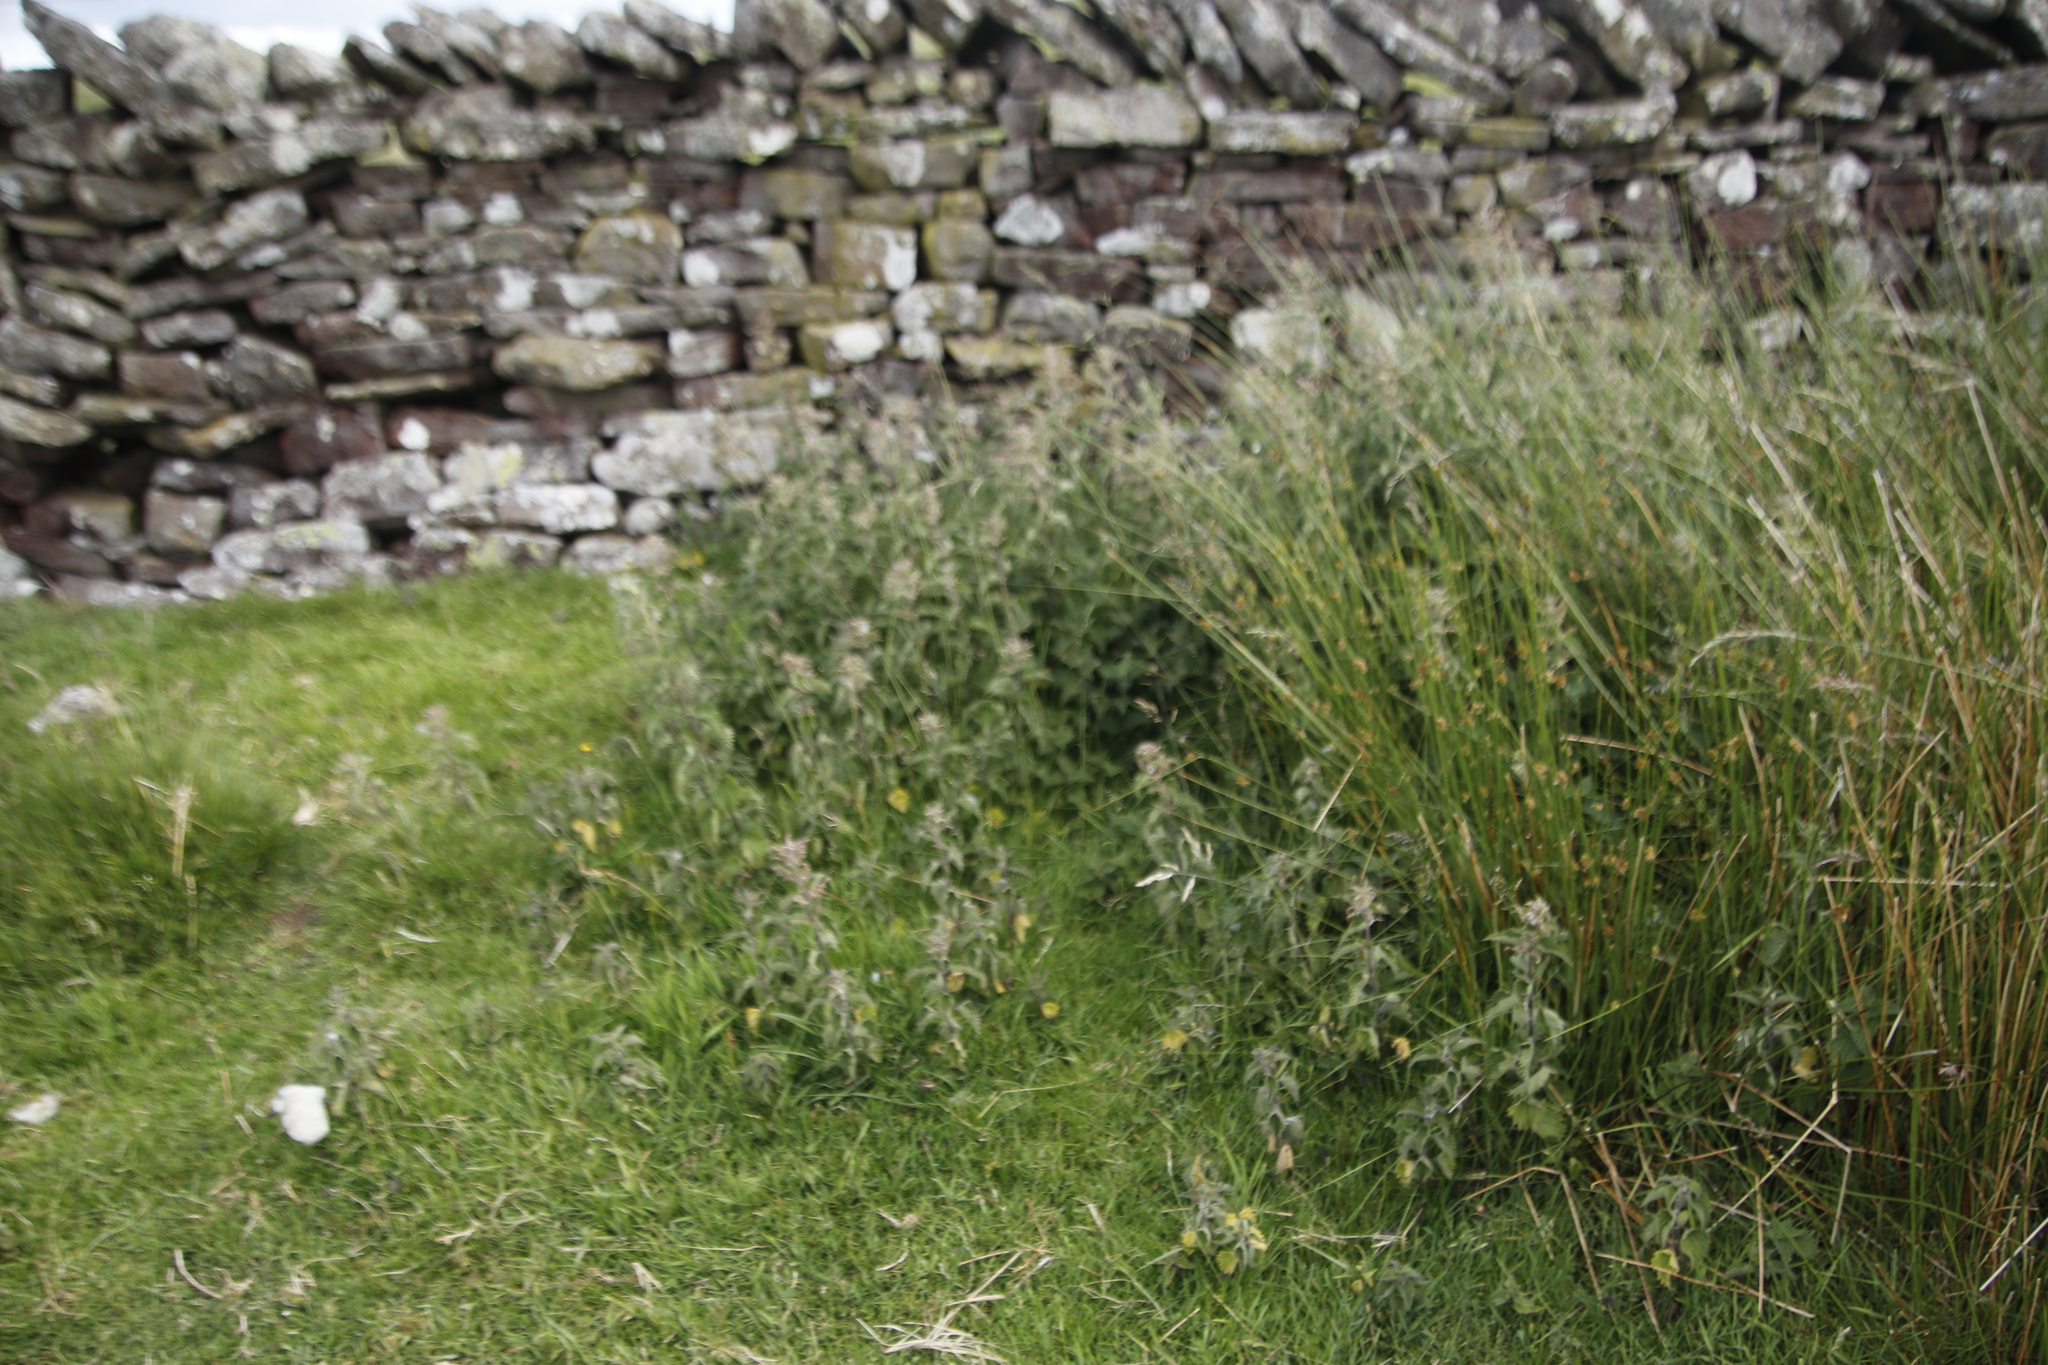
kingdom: Plantae
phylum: Tracheophyta
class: Magnoliopsida
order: Rosales
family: Urticaceae
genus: Urtica
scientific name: Urtica dioica
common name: Common nettle
